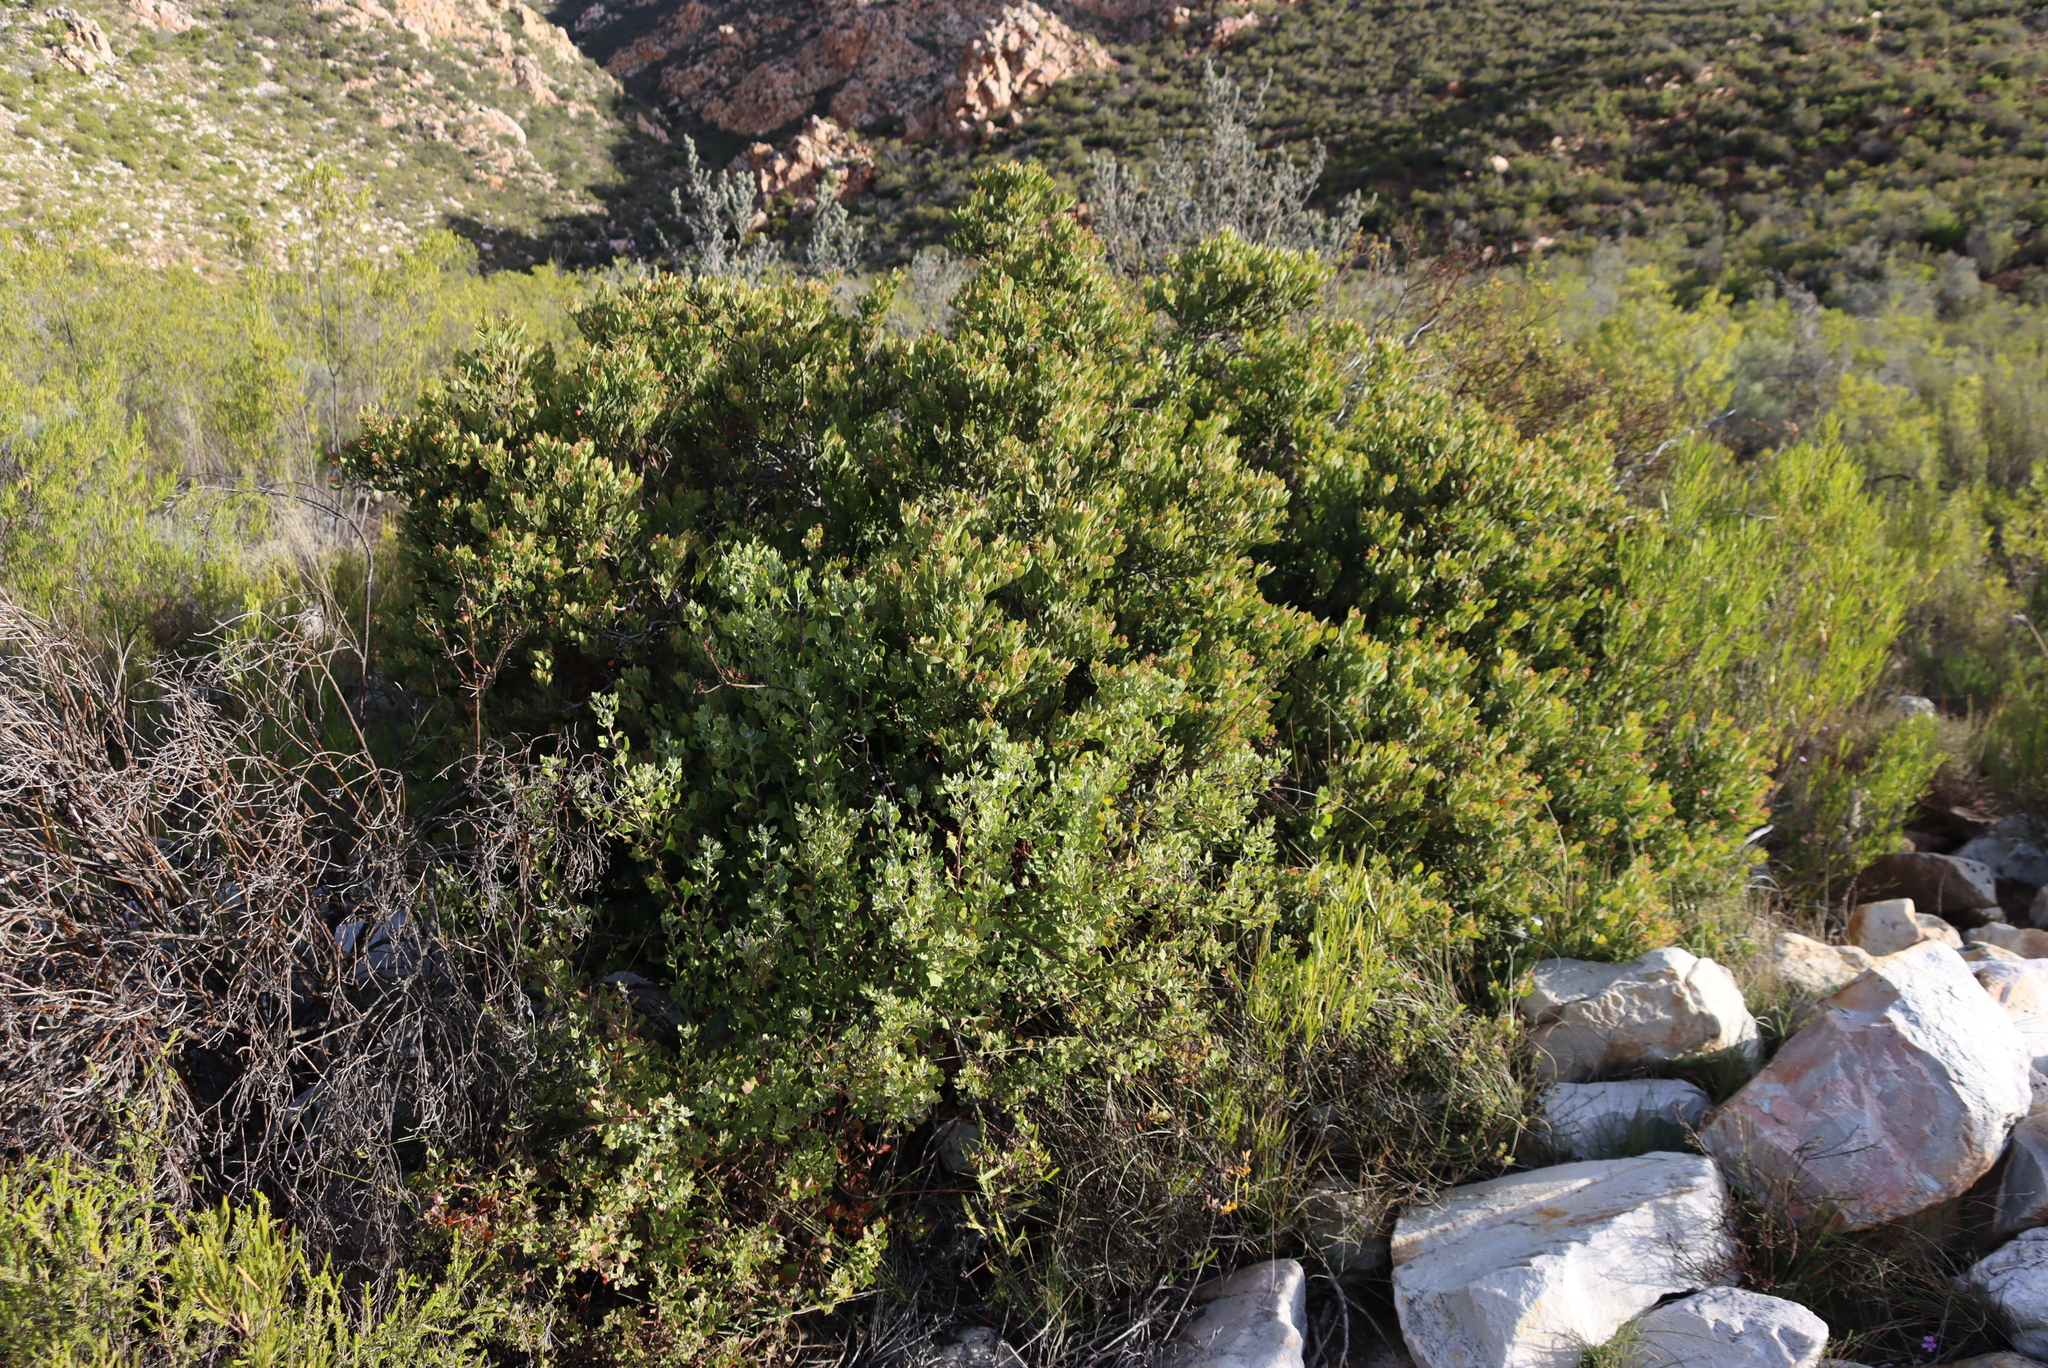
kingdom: Plantae
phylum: Tracheophyta
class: Magnoliopsida
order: Santalales
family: Santalaceae
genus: Osyris
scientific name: Osyris compressa
